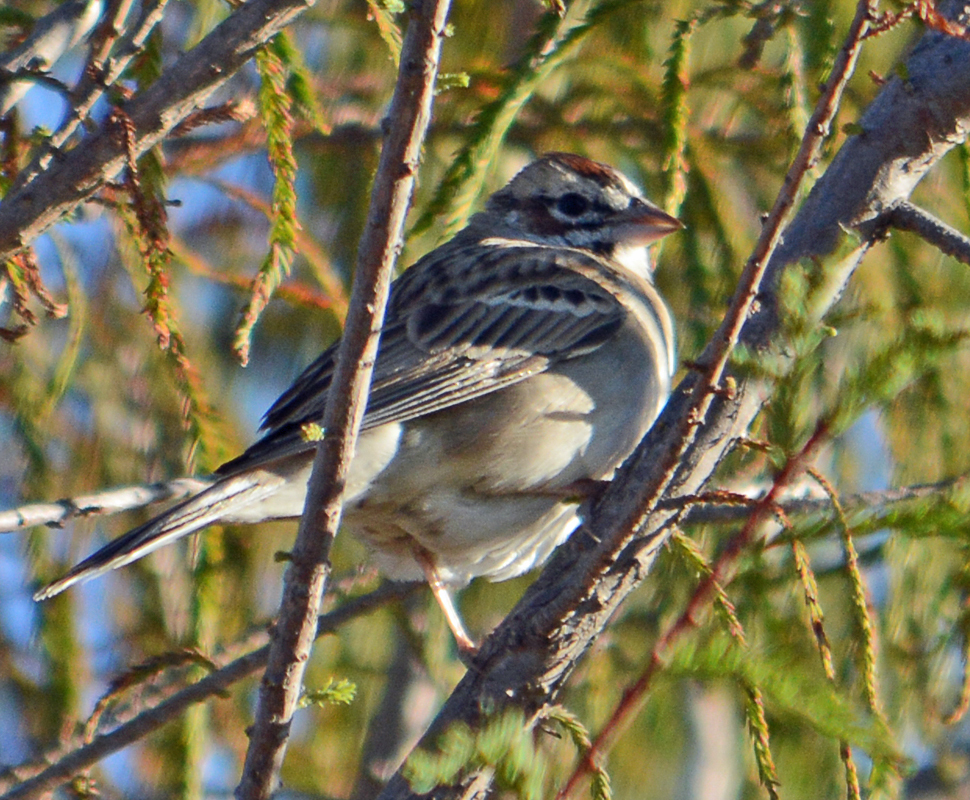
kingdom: Animalia
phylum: Chordata
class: Aves
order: Passeriformes
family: Passerellidae
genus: Chondestes
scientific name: Chondestes grammacus
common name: Lark sparrow
